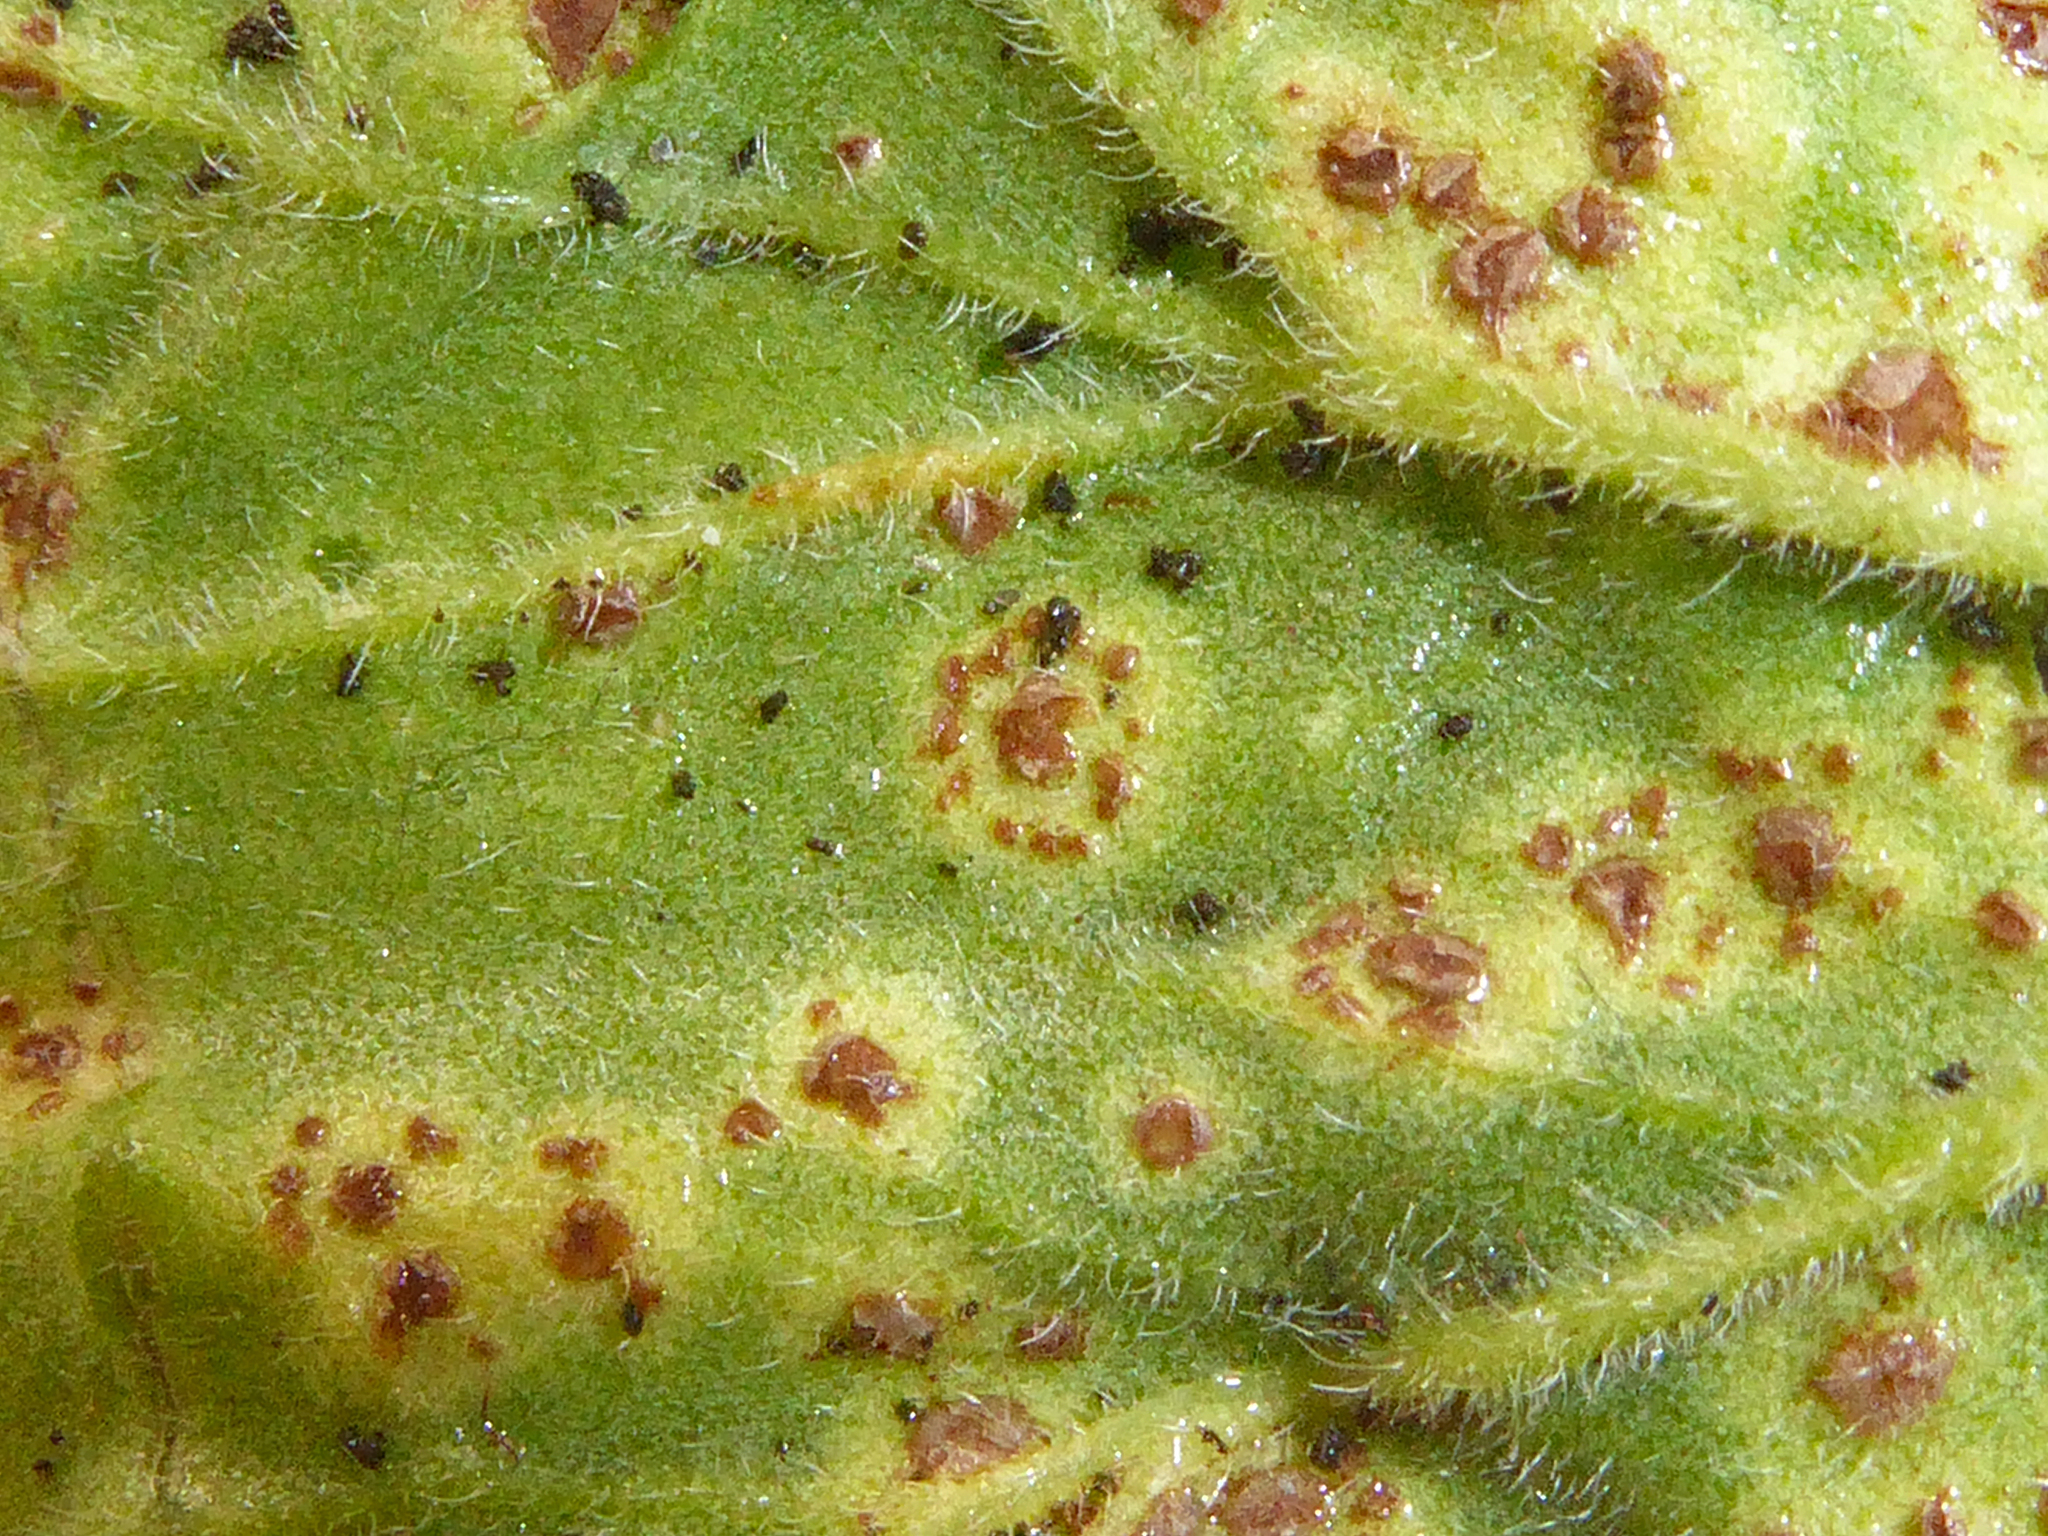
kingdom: Fungi
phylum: Basidiomycota
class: Pucciniomycetes
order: Pucciniales
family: Pucciniaceae
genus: Puccinia
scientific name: Puccinia pelargonii-zonalis
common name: Rust of pelargonium
